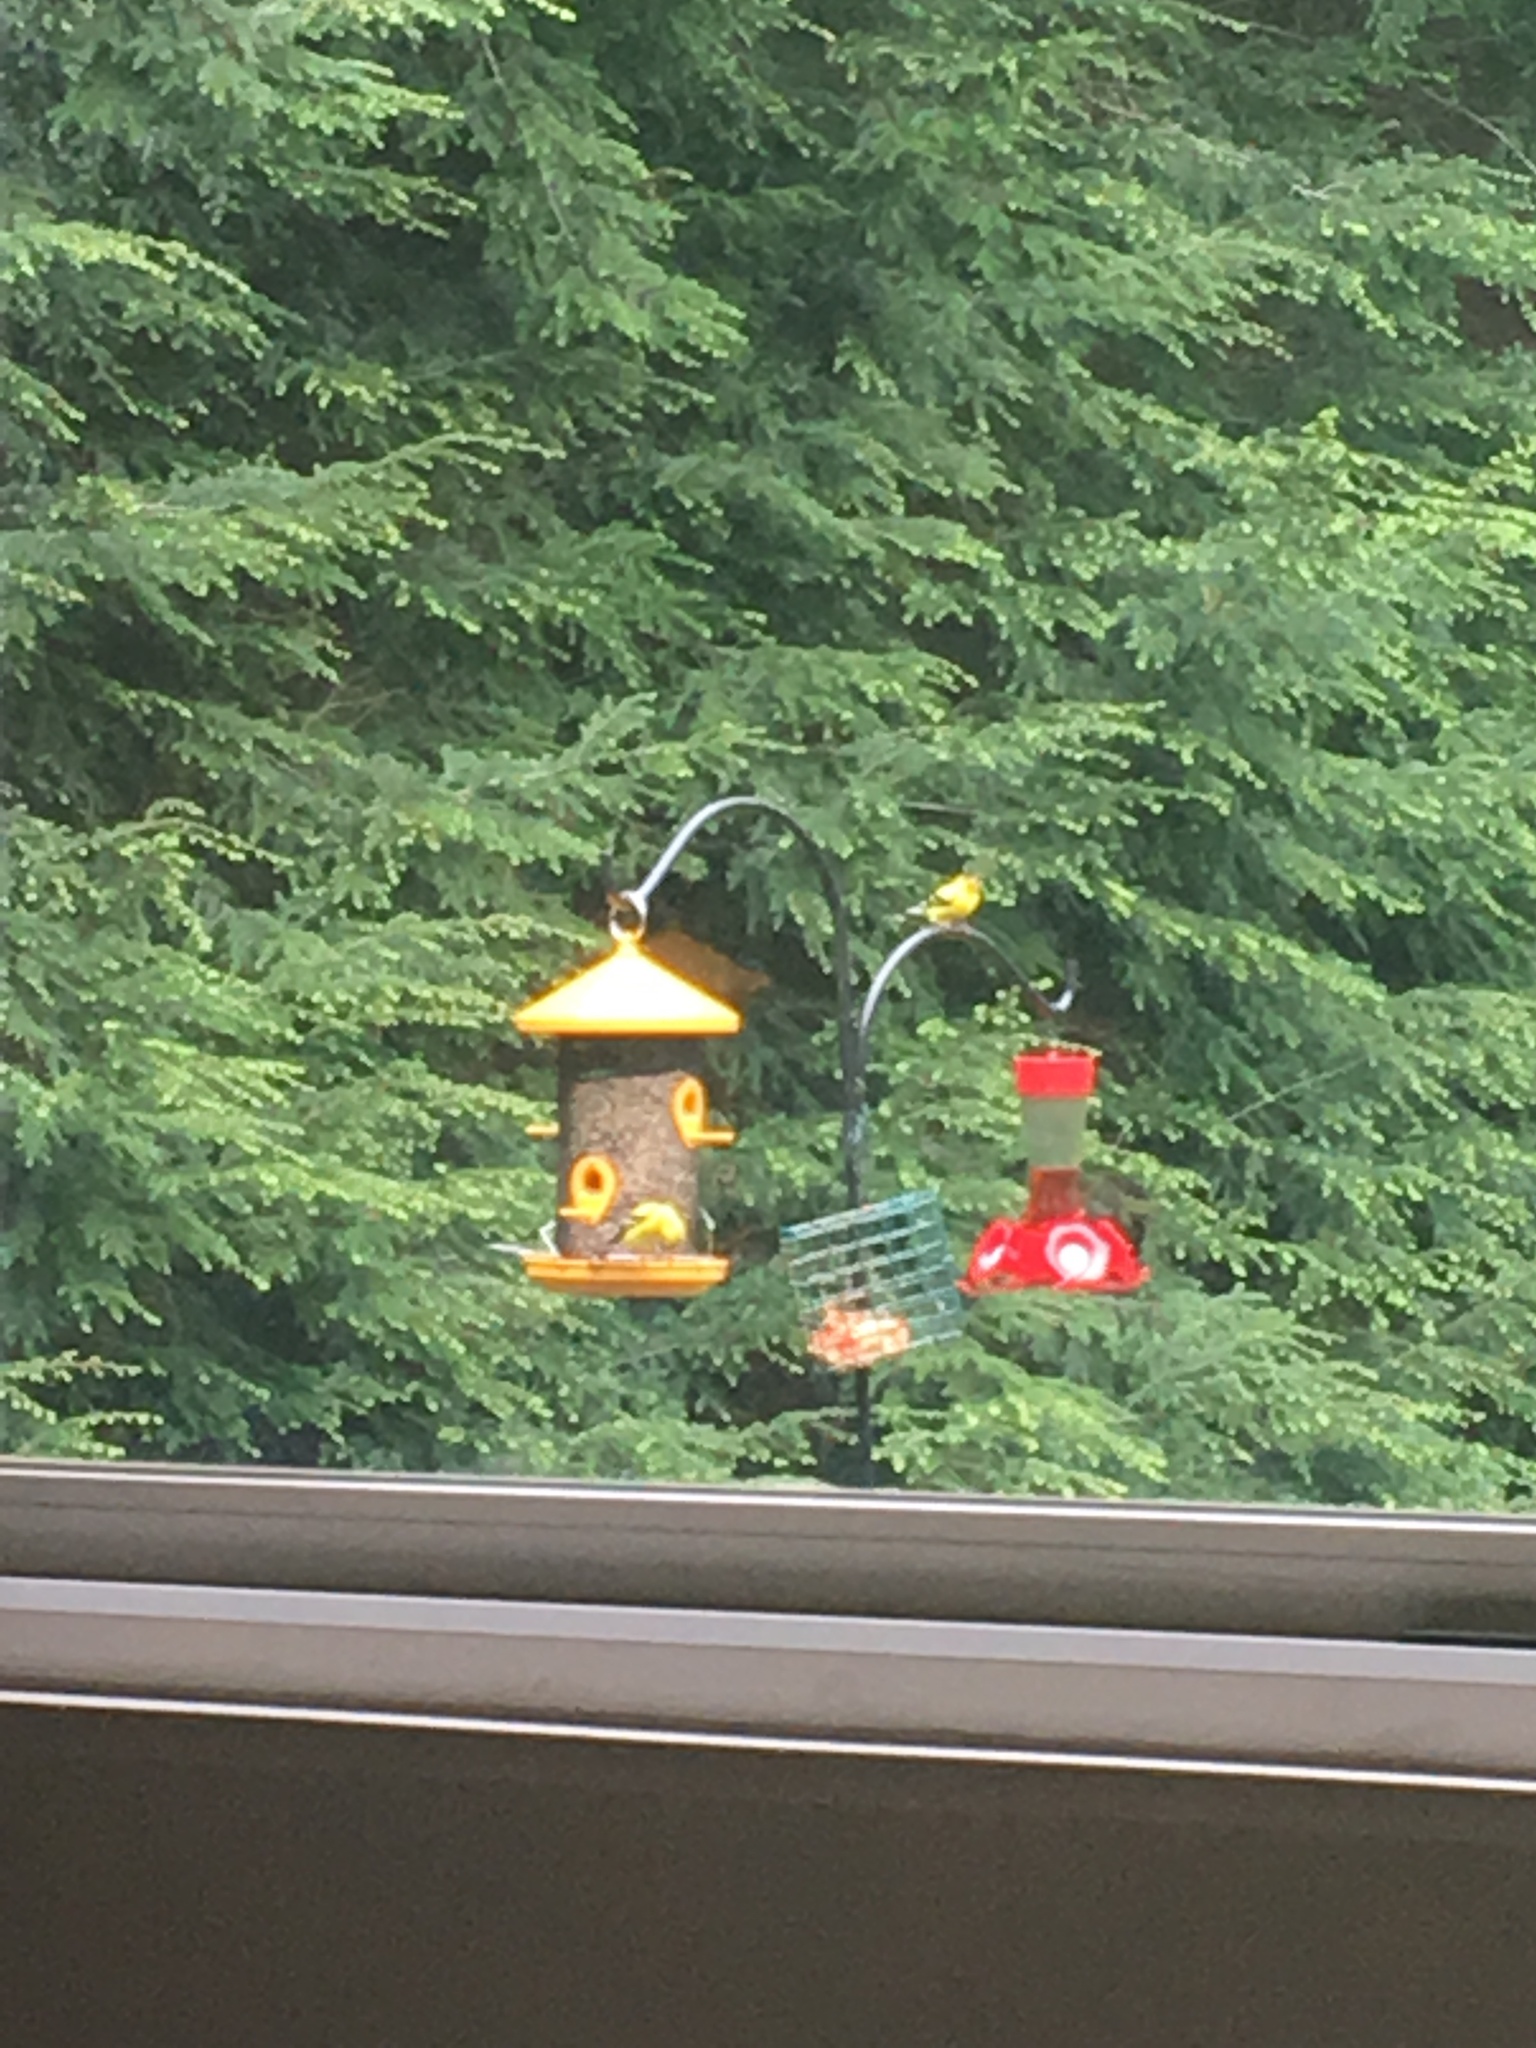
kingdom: Animalia
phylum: Chordata
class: Aves
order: Passeriformes
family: Fringillidae
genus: Spinus
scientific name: Spinus tristis
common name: American goldfinch
